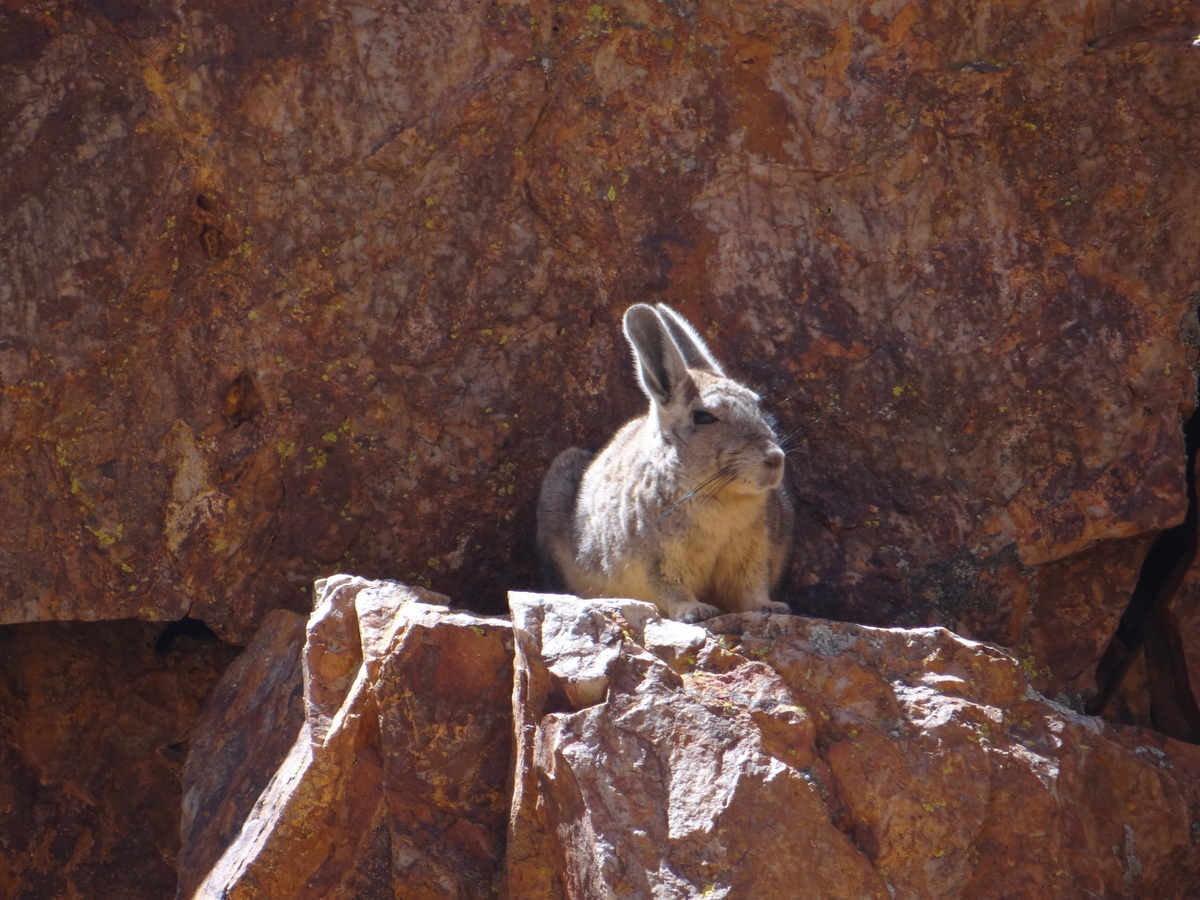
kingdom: Animalia
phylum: Chordata
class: Mammalia
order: Rodentia
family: Chinchillidae
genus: Lagidium
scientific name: Lagidium viscacia
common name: Southern viscacha
